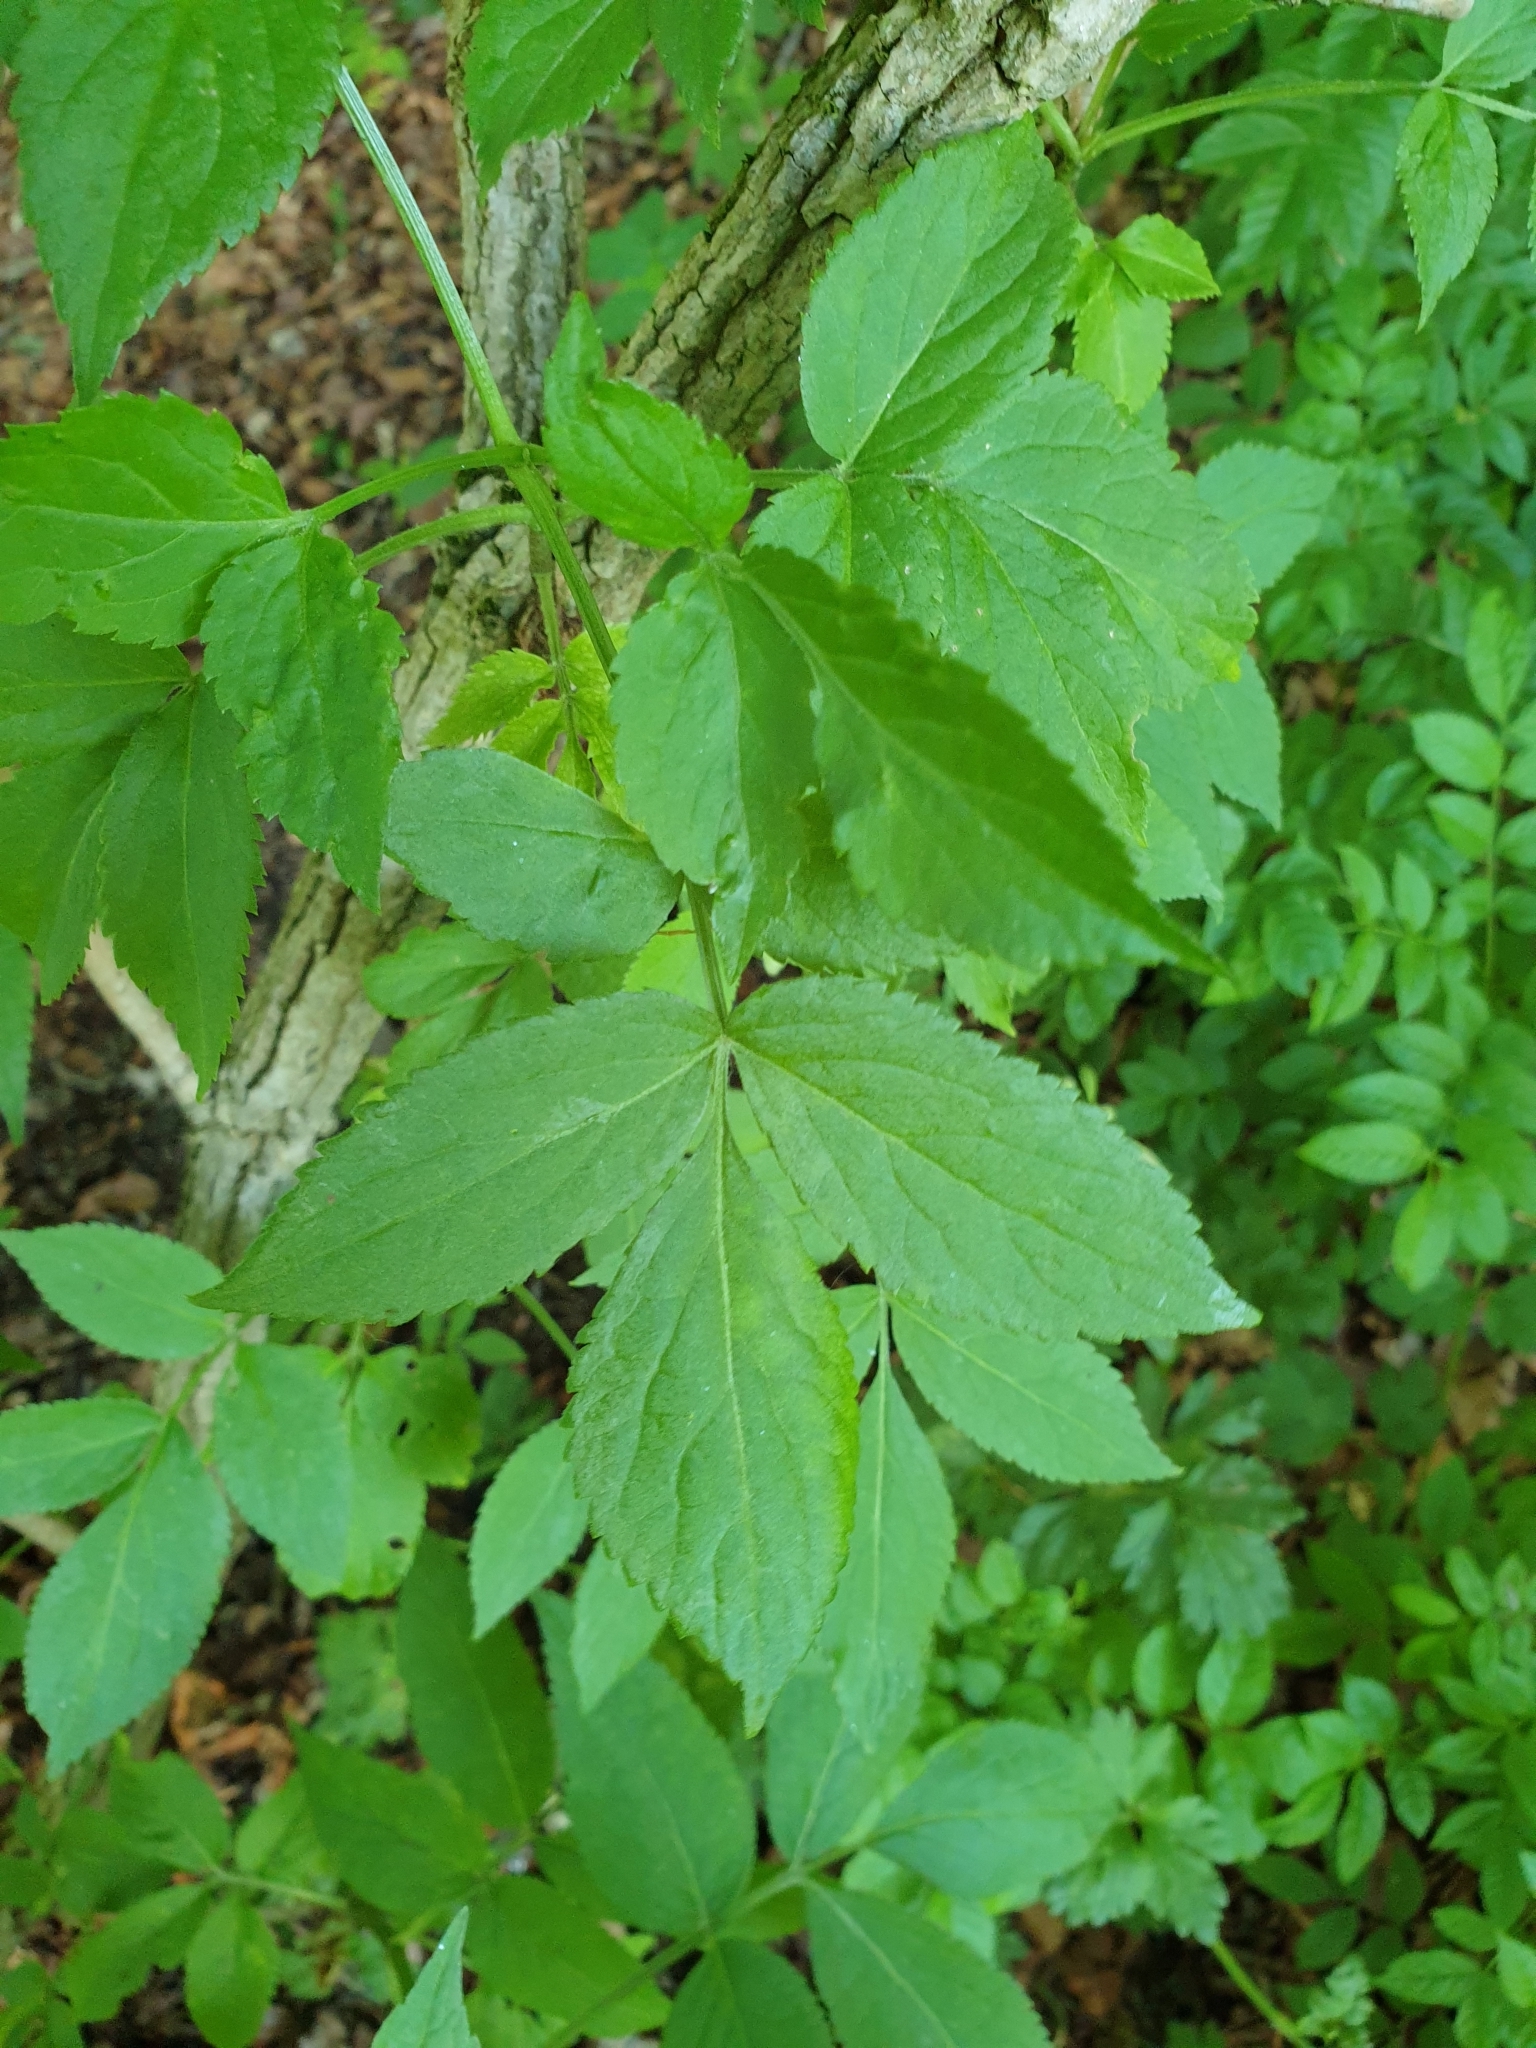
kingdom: Plantae
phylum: Tracheophyta
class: Magnoliopsida
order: Dipsacales
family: Viburnaceae
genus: Sambucus
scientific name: Sambucus nigra
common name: Elder
